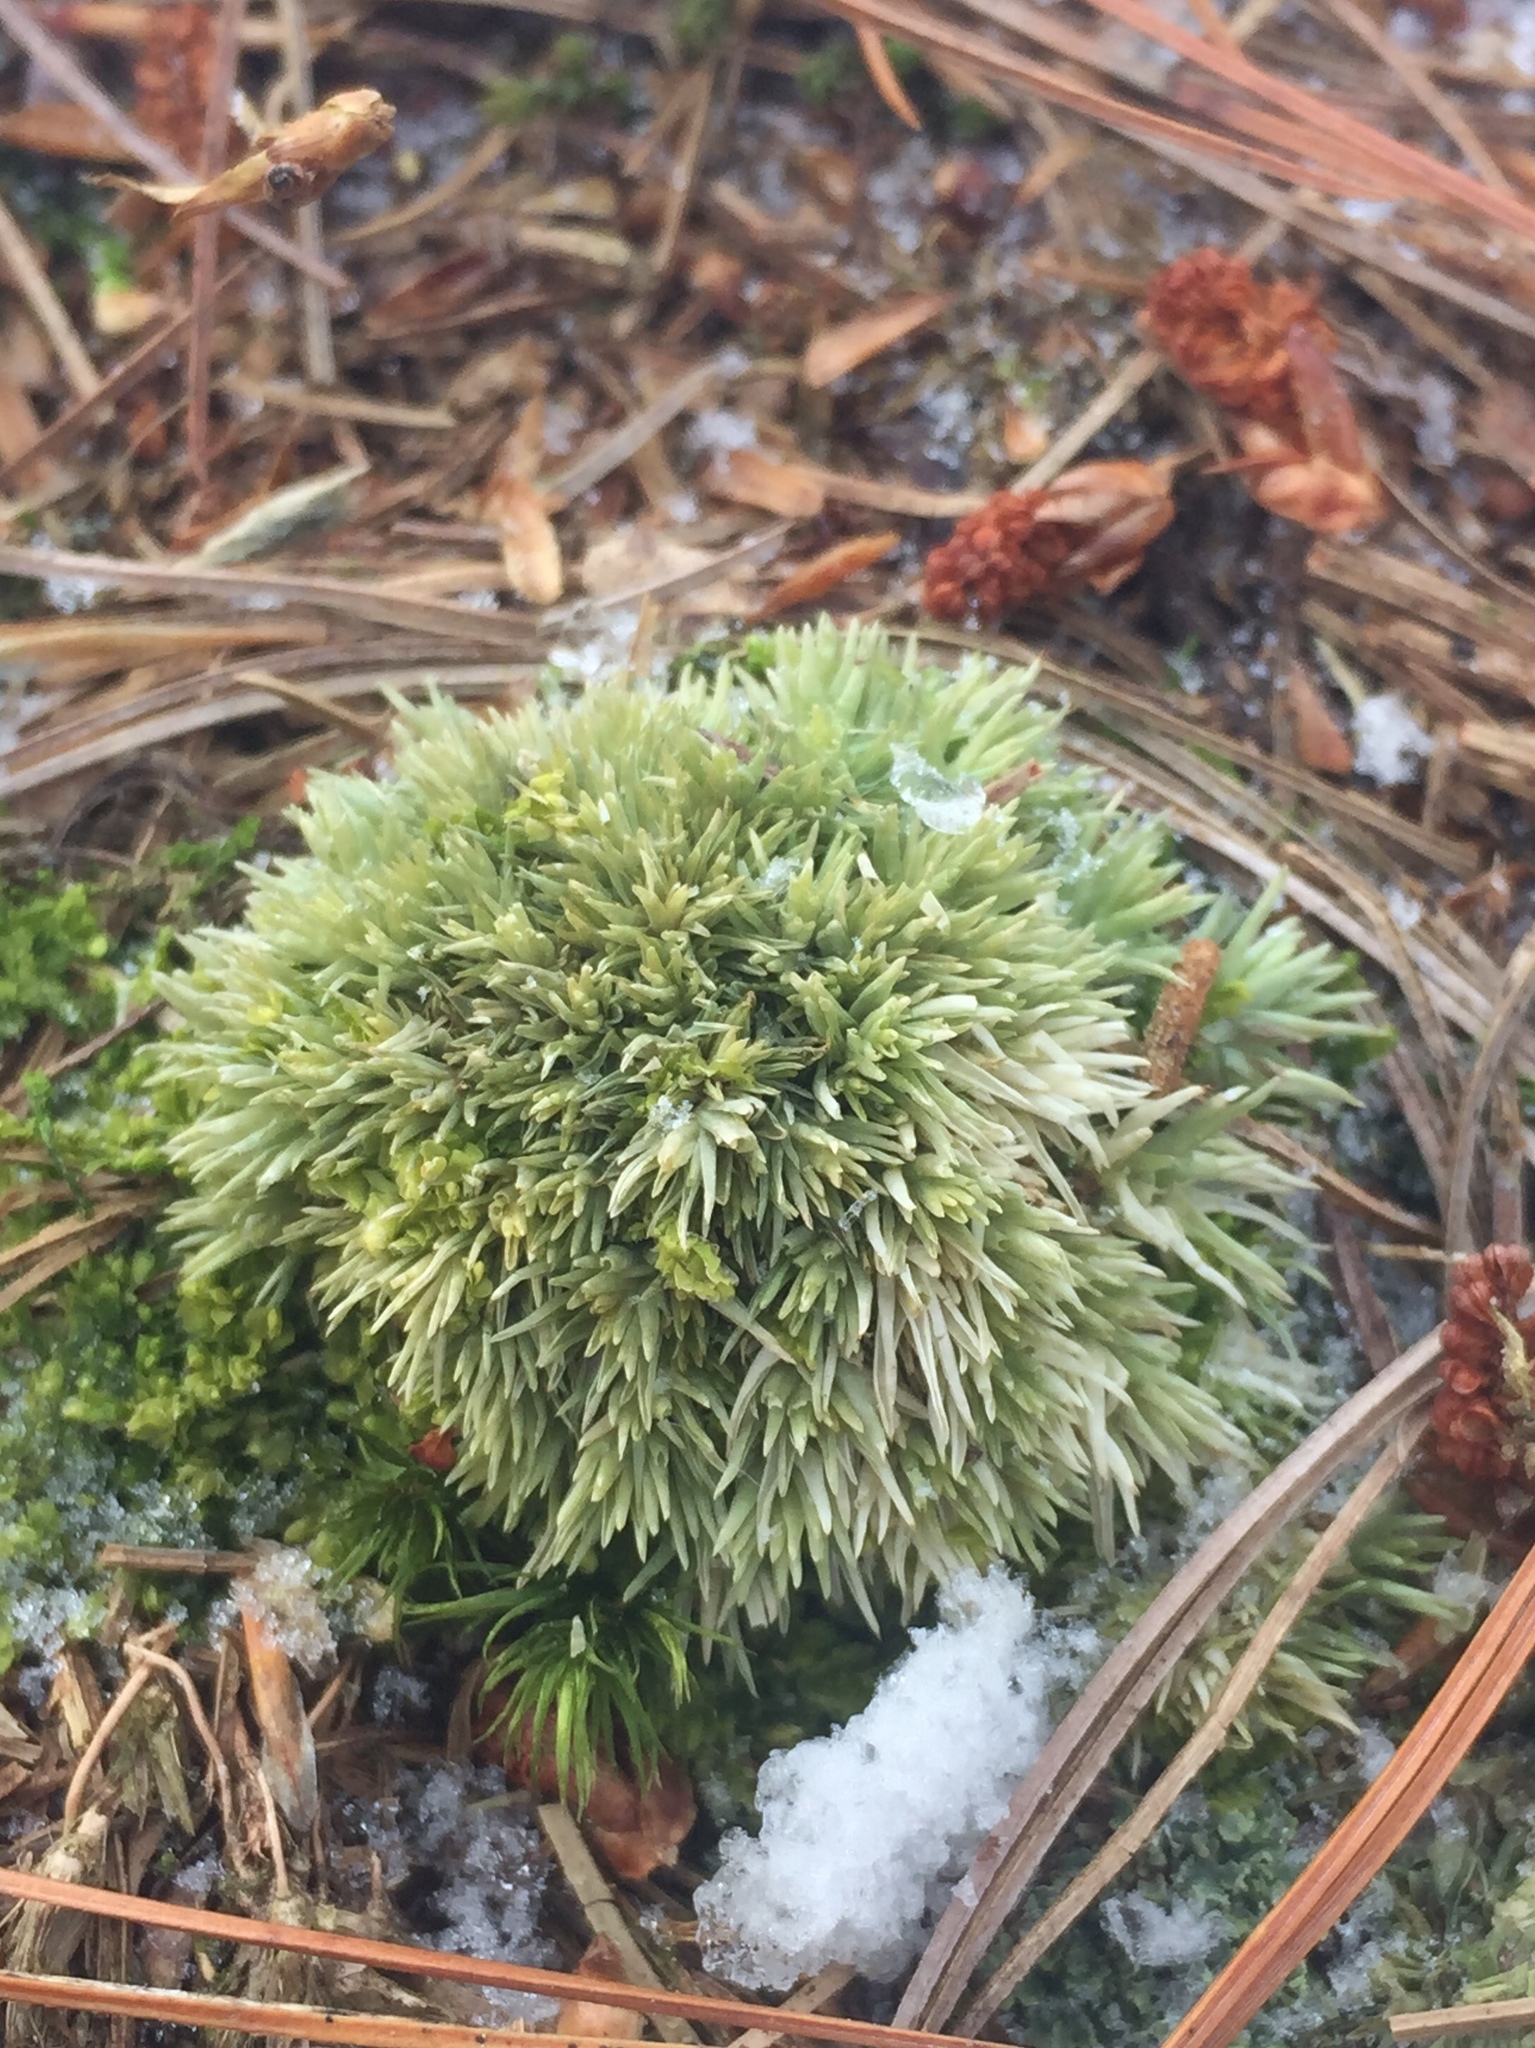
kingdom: Plantae
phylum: Bryophyta
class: Bryopsida
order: Dicranales
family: Leucobryaceae
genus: Leucobryum
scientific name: Leucobryum glaucum
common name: Large white-moss
